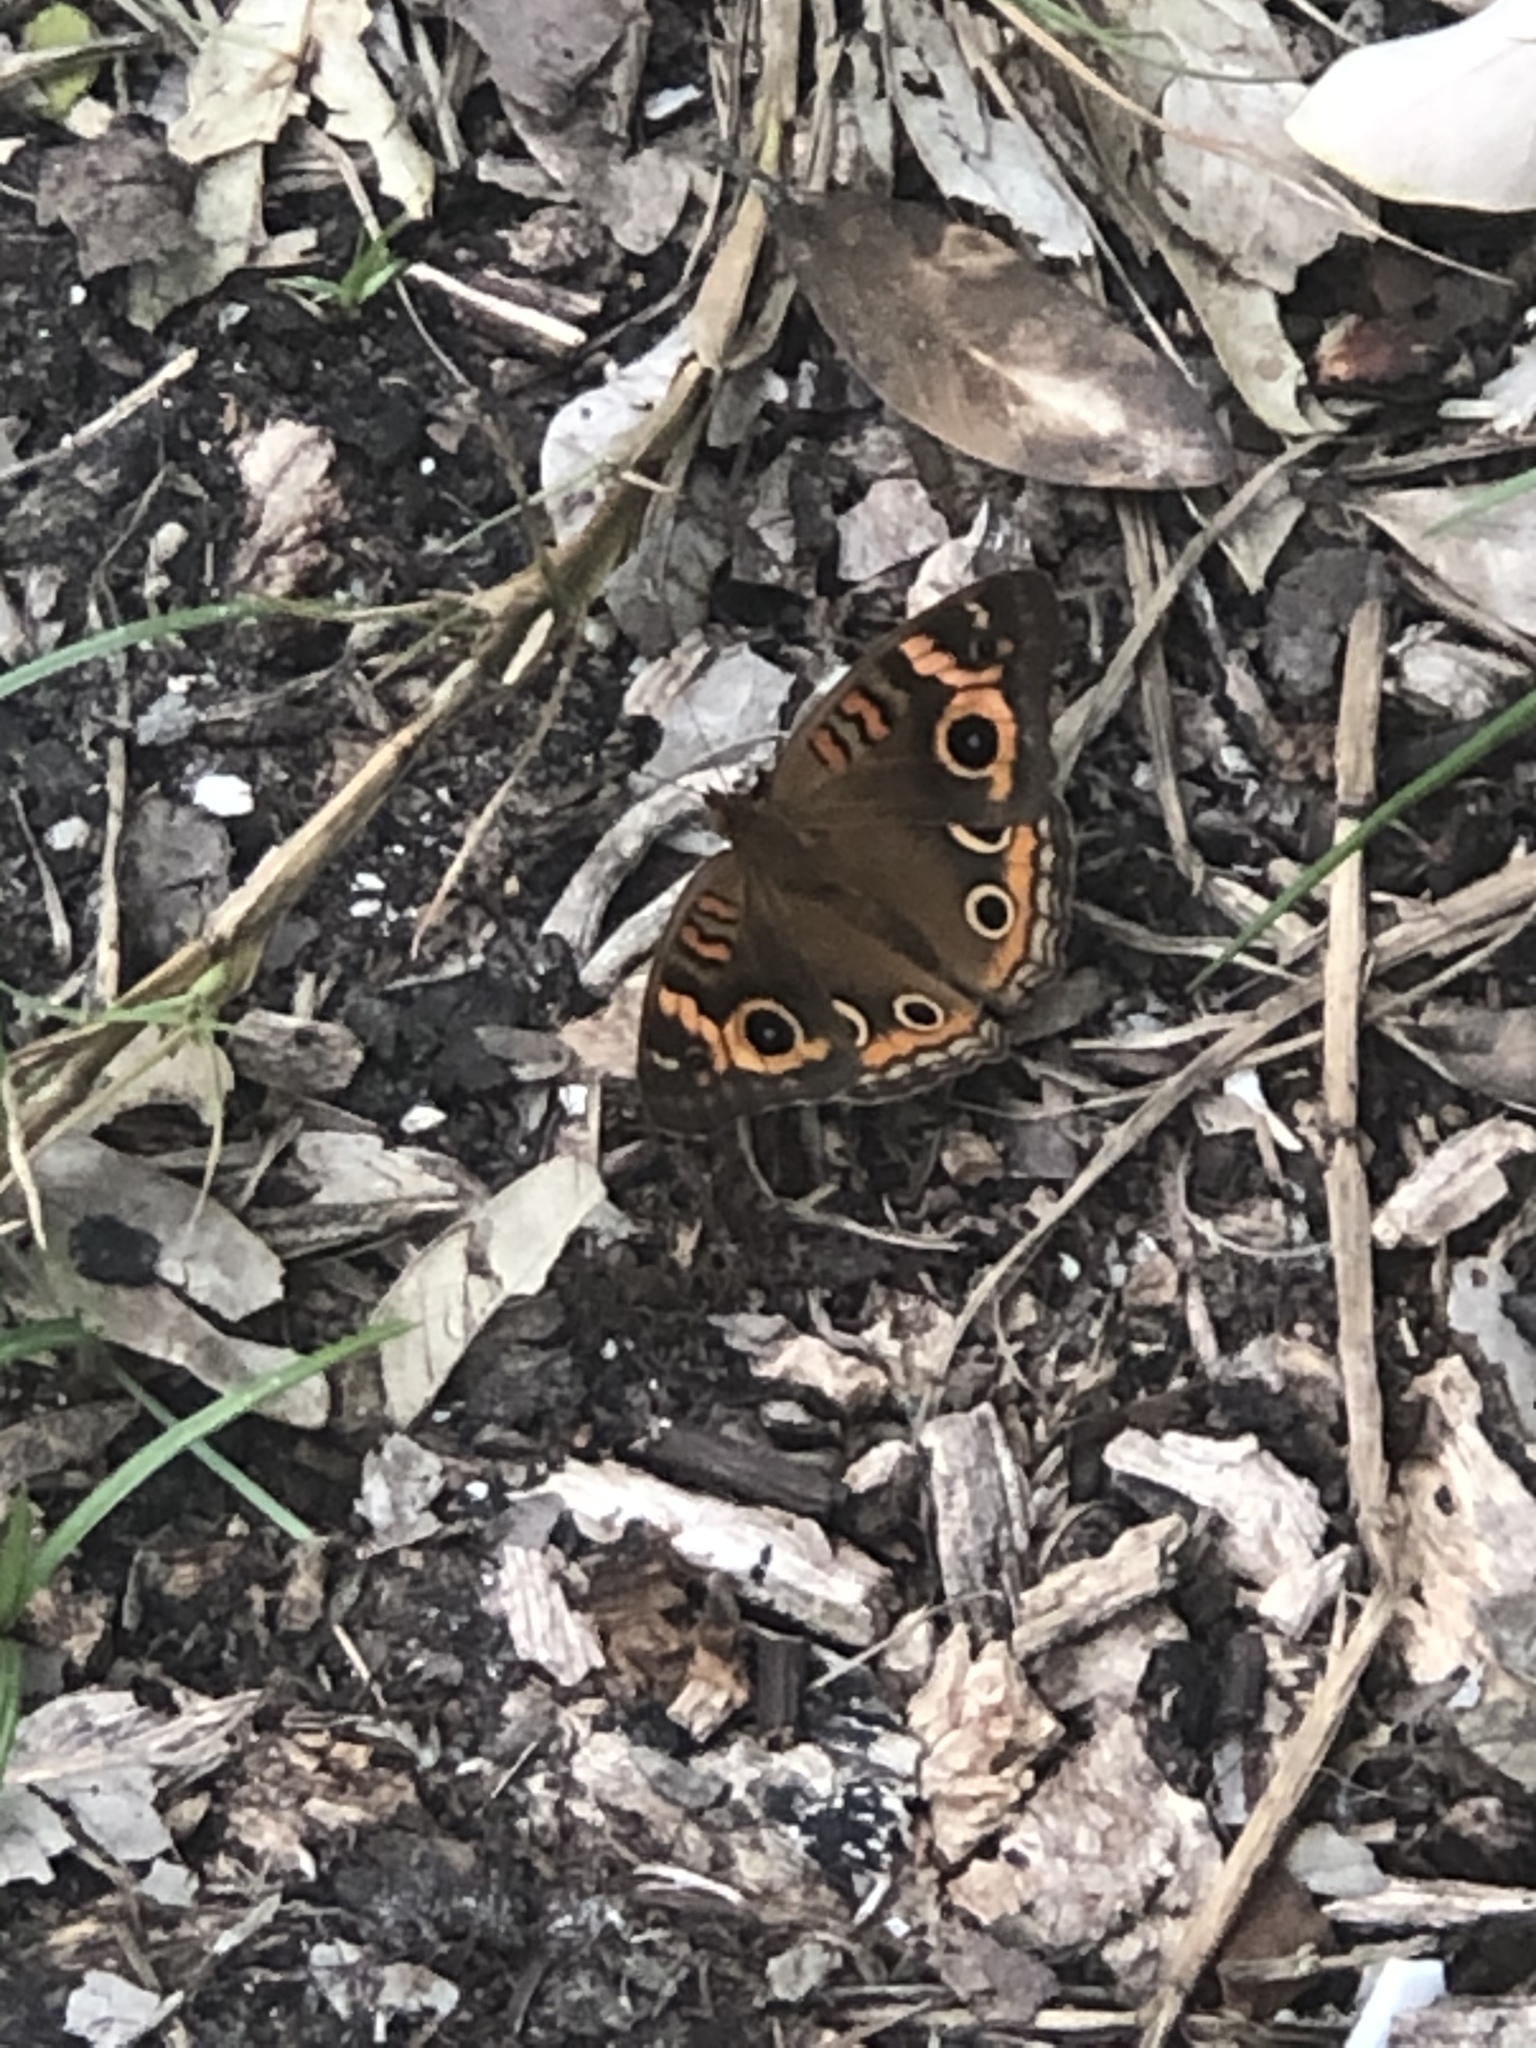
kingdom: Animalia
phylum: Arthropoda
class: Insecta
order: Lepidoptera
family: Nymphalidae
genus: Junonia
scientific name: Junonia neildi
